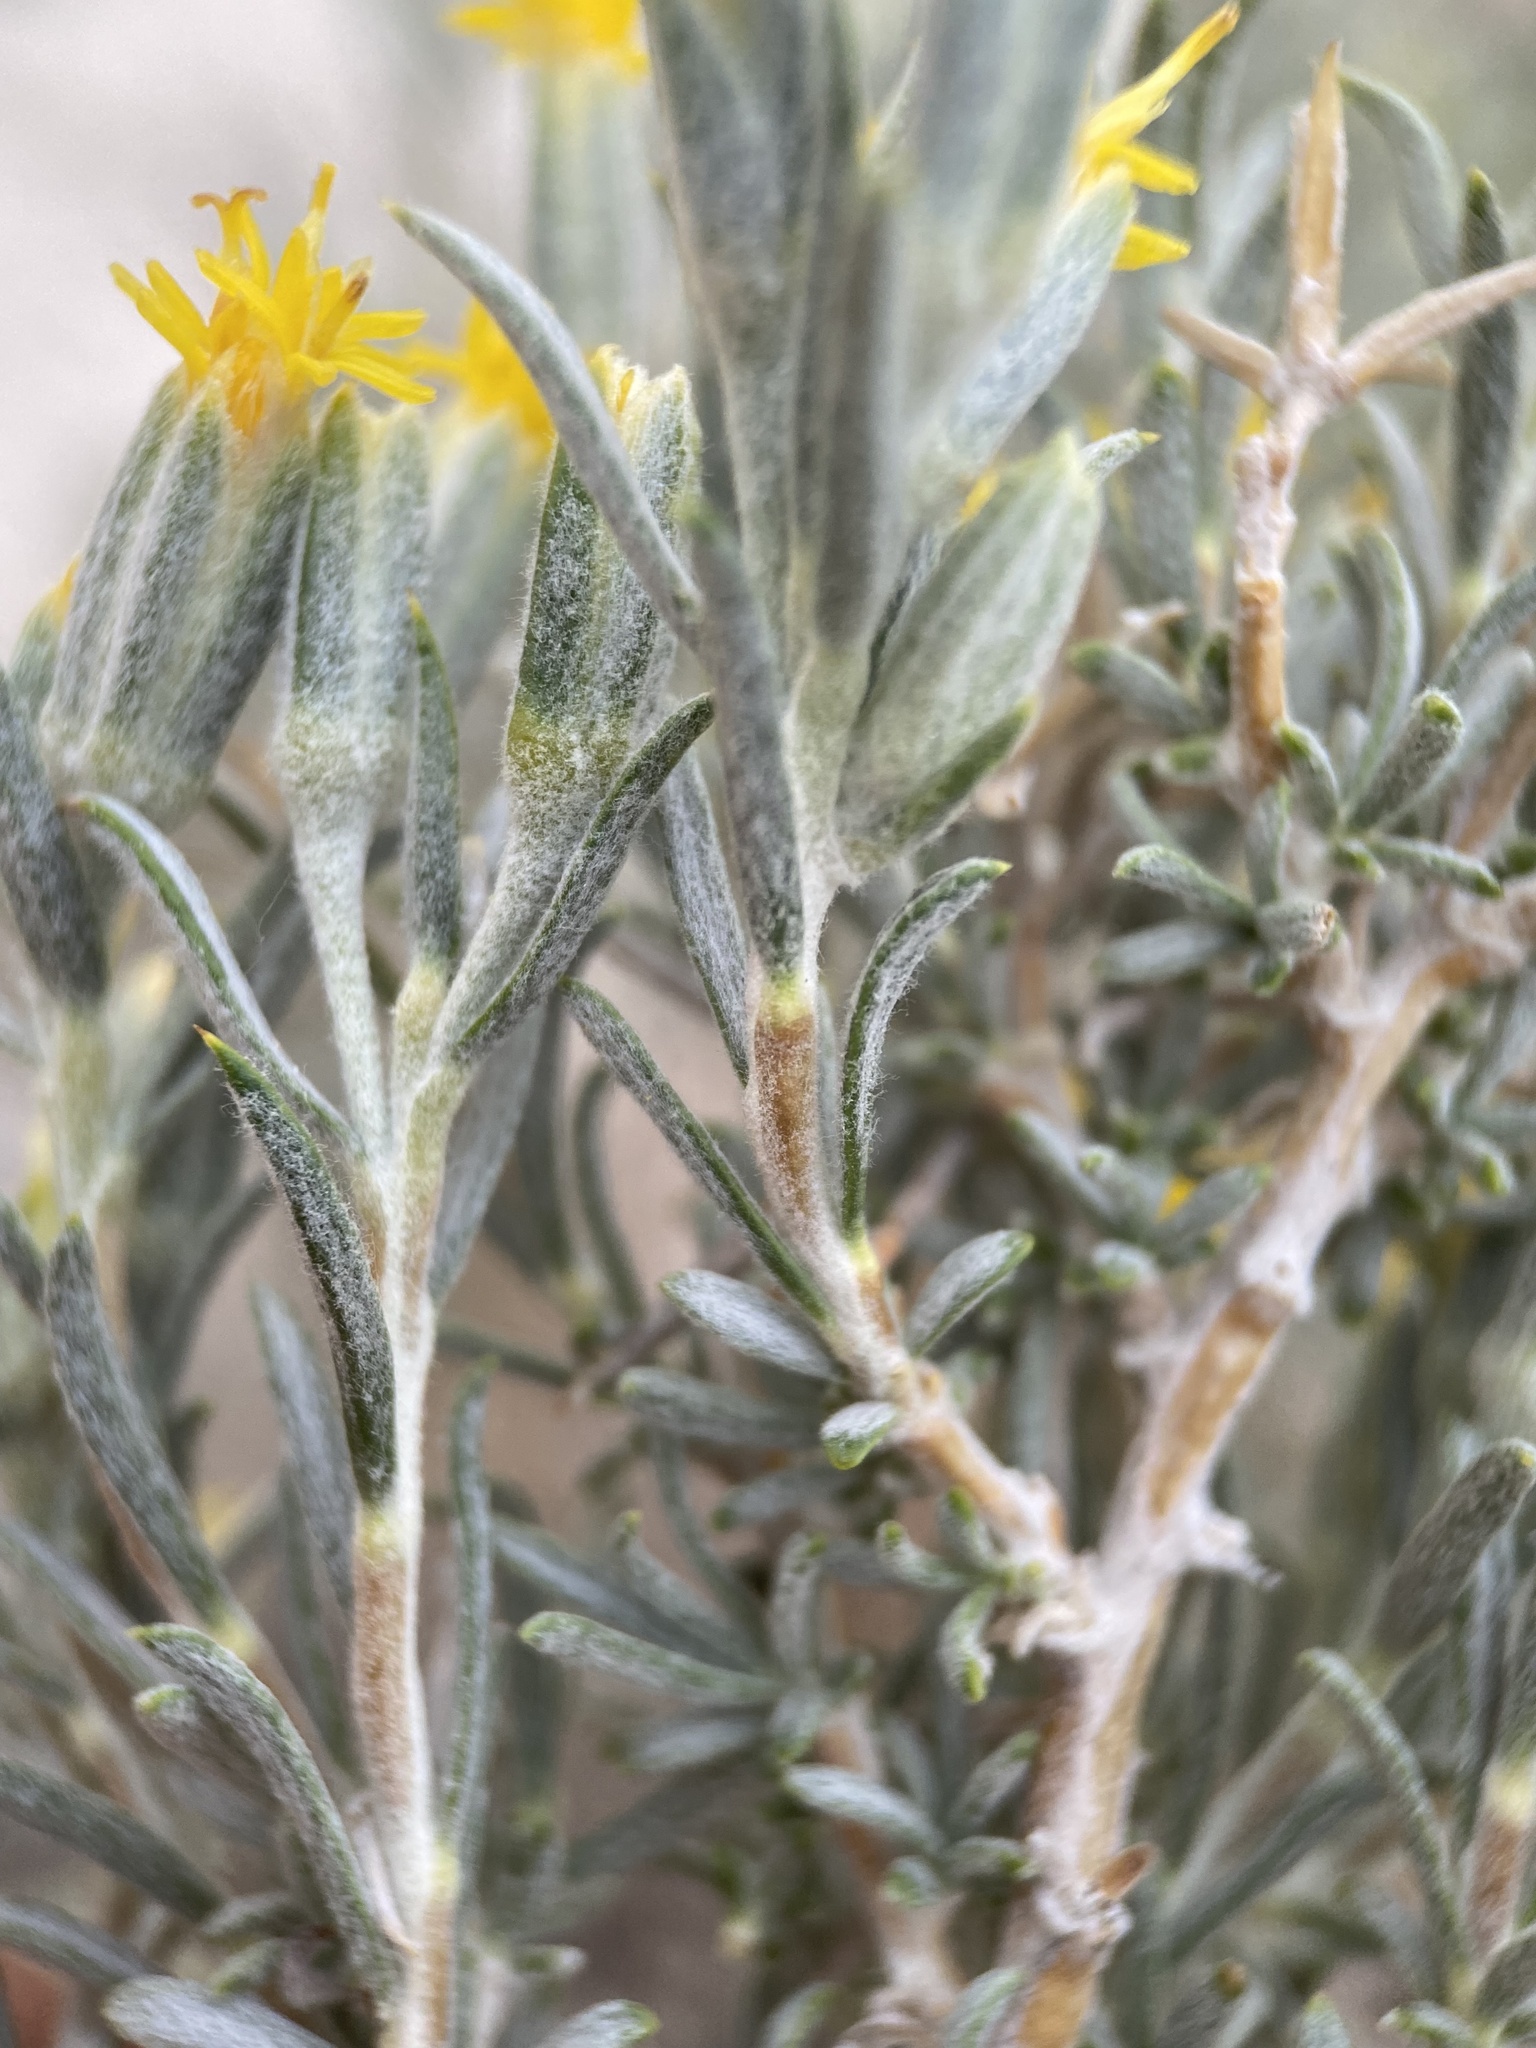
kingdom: Plantae
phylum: Tracheophyta
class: Magnoliopsida
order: Asterales
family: Asteraceae
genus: Tetradymia
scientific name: Tetradymia canescens
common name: Spineless horsebrush
